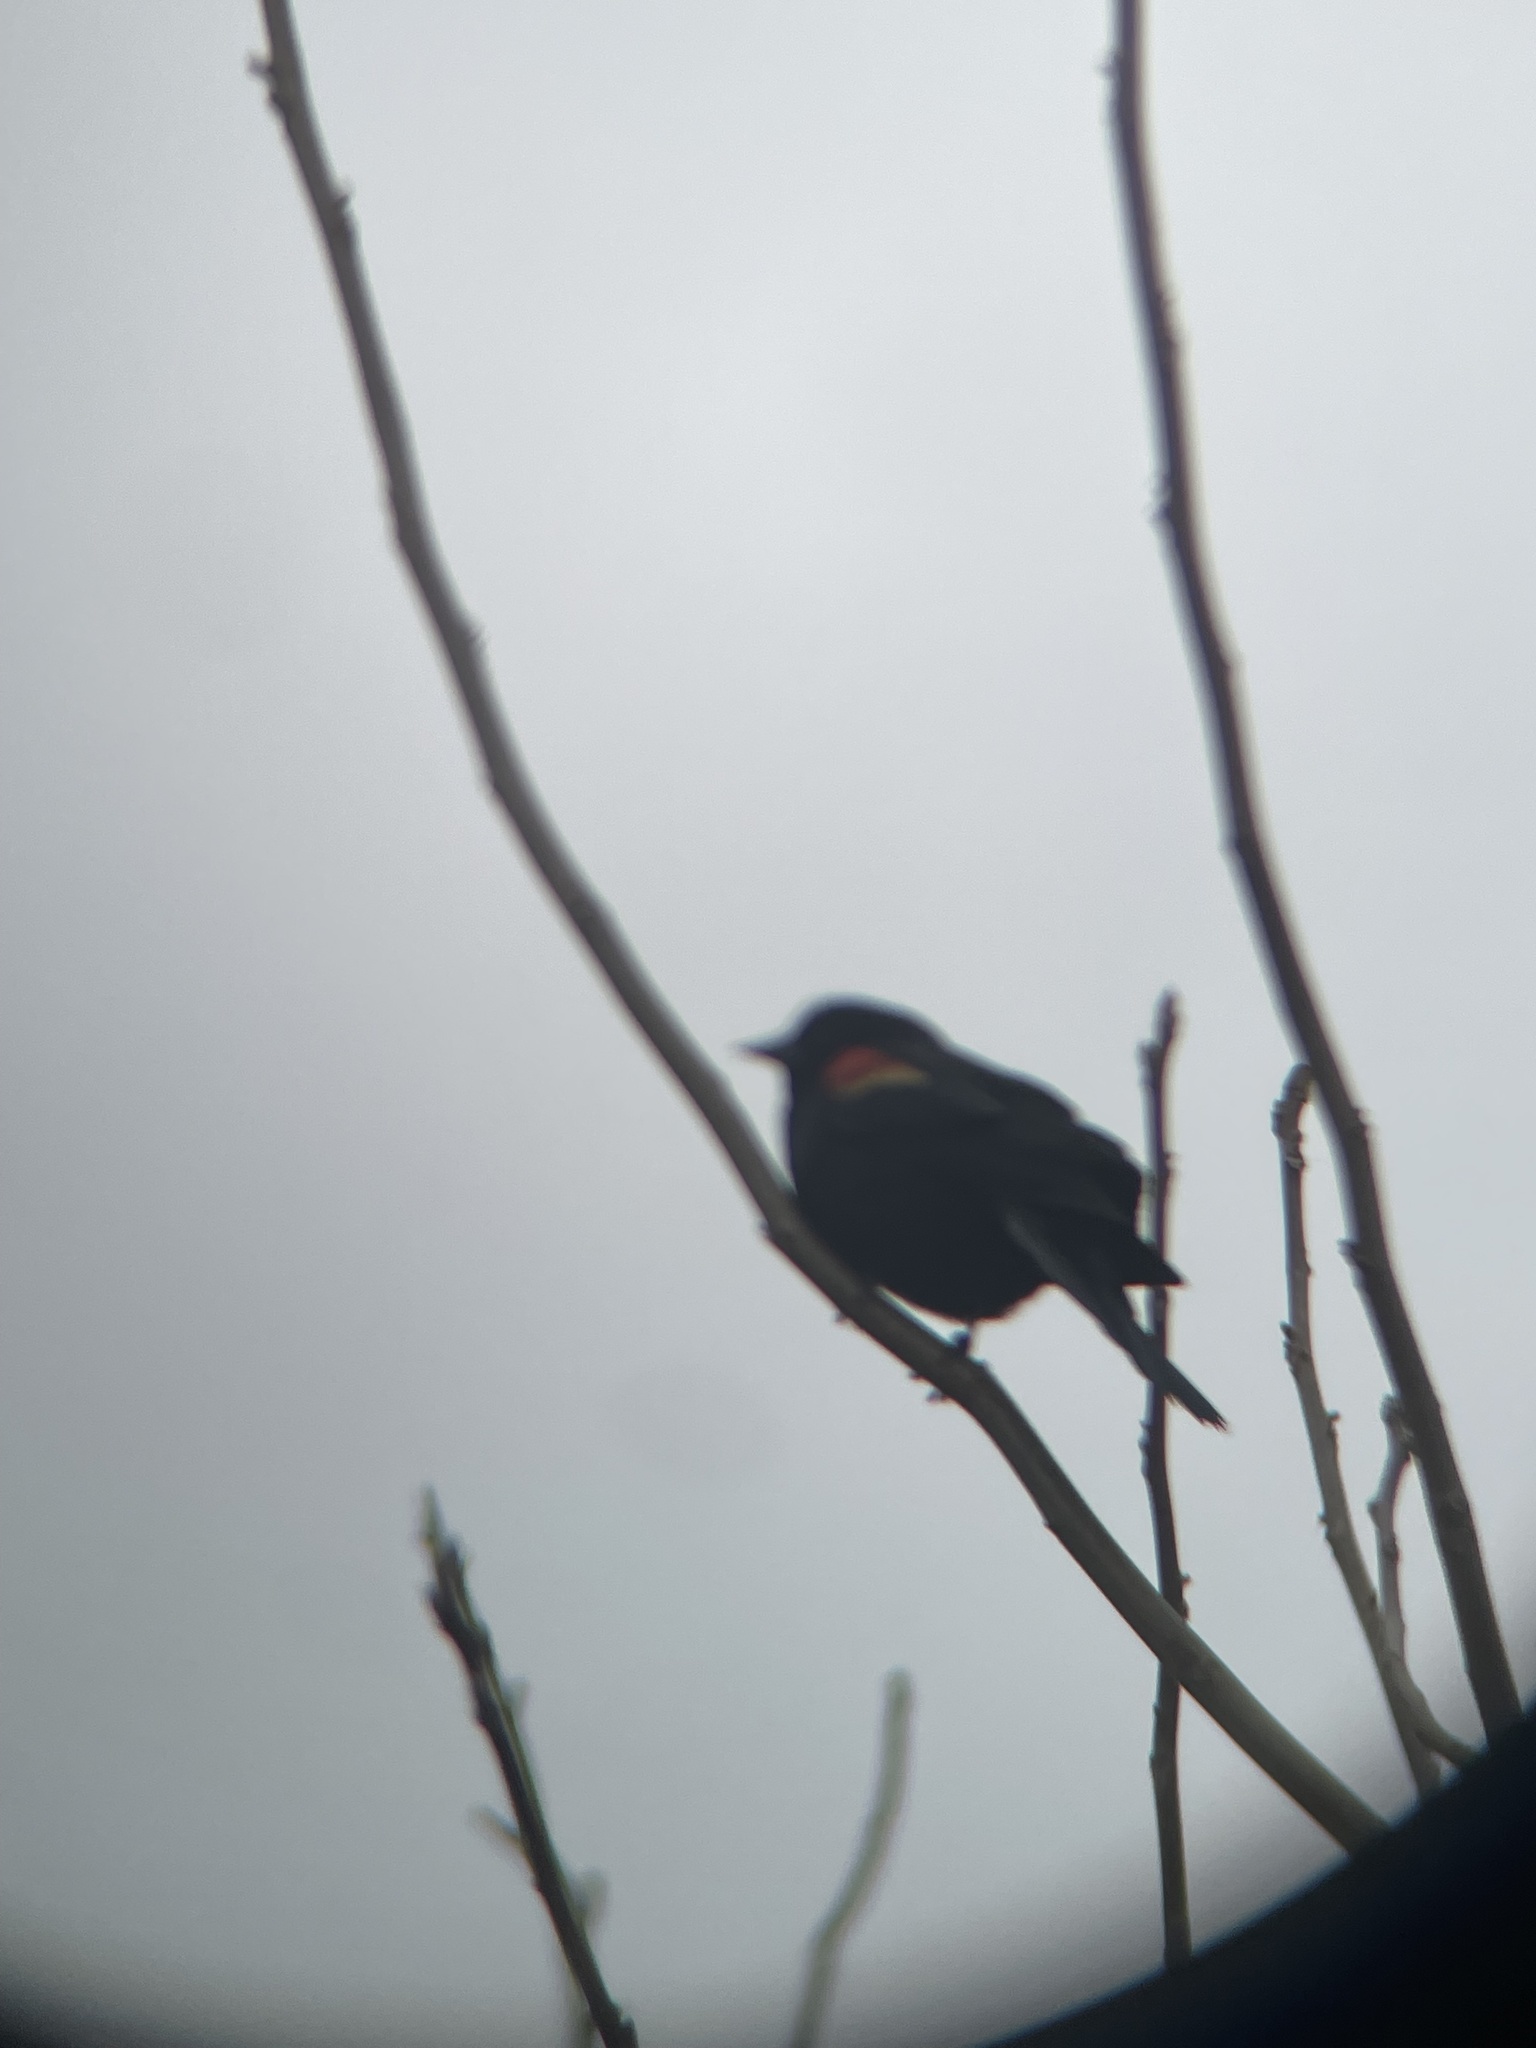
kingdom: Animalia
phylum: Chordata
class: Aves
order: Passeriformes
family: Icteridae
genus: Agelaius
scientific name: Agelaius phoeniceus
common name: Red-winged blackbird
